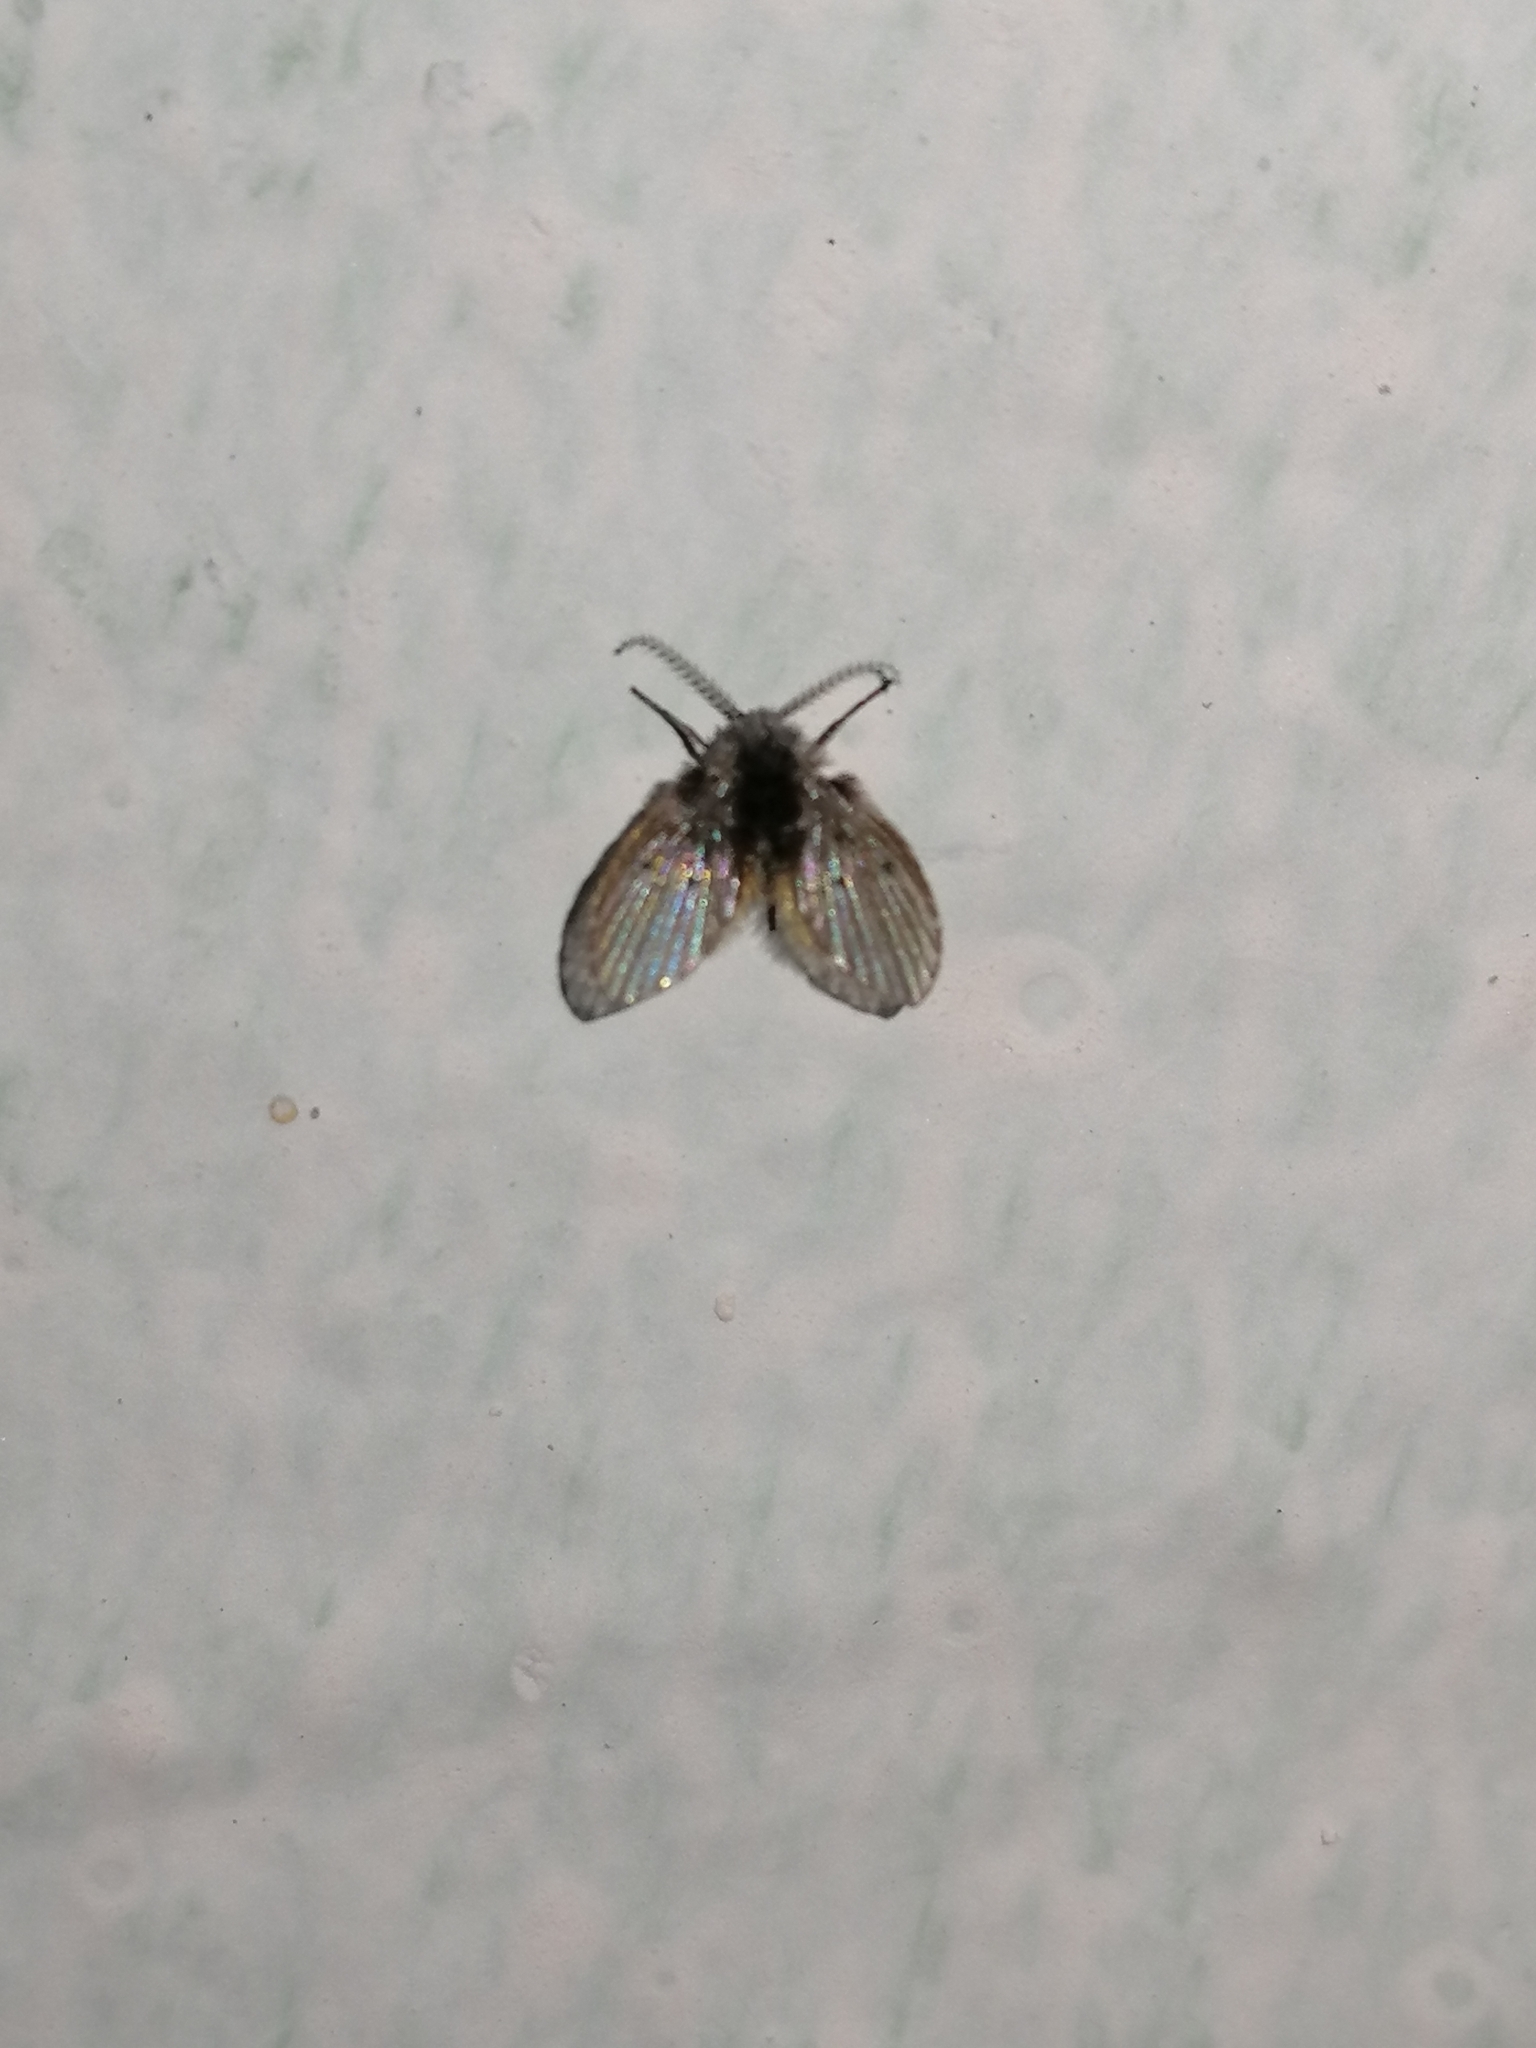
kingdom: Animalia
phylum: Arthropoda
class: Insecta
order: Diptera
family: Psychodidae
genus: Clogmia
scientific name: Clogmia albipunctatus
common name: White-spotted moth fly
